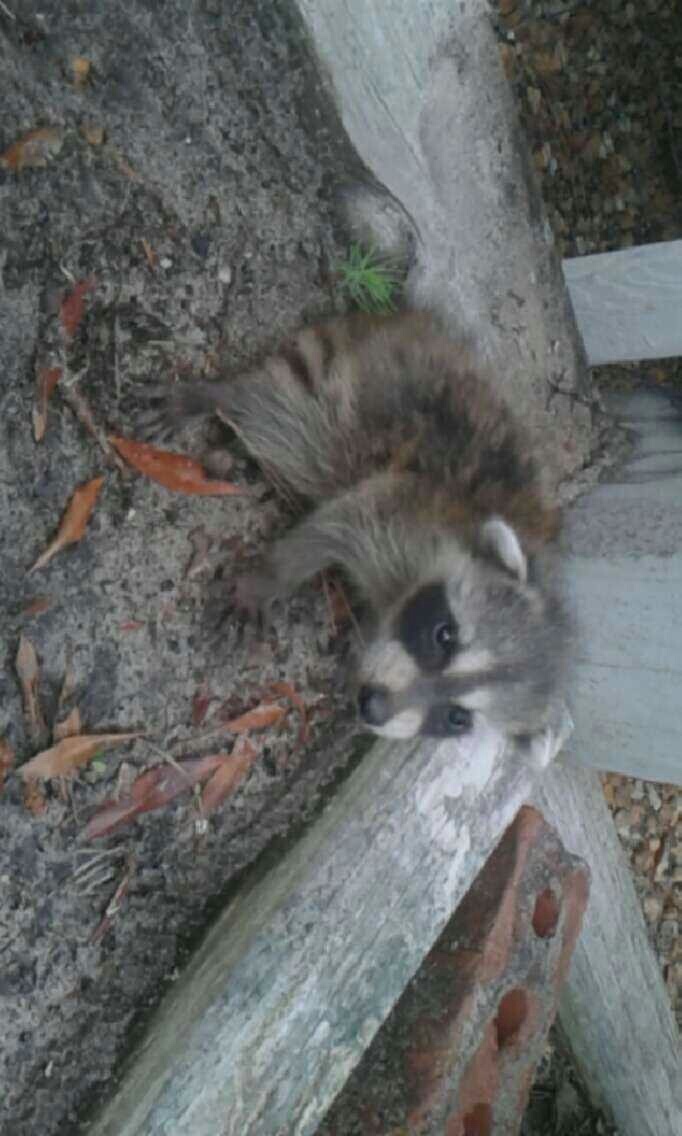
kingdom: Animalia
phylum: Chordata
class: Mammalia
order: Carnivora
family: Procyonidae
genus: Procyon
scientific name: Procyon lotor
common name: Raccoon
